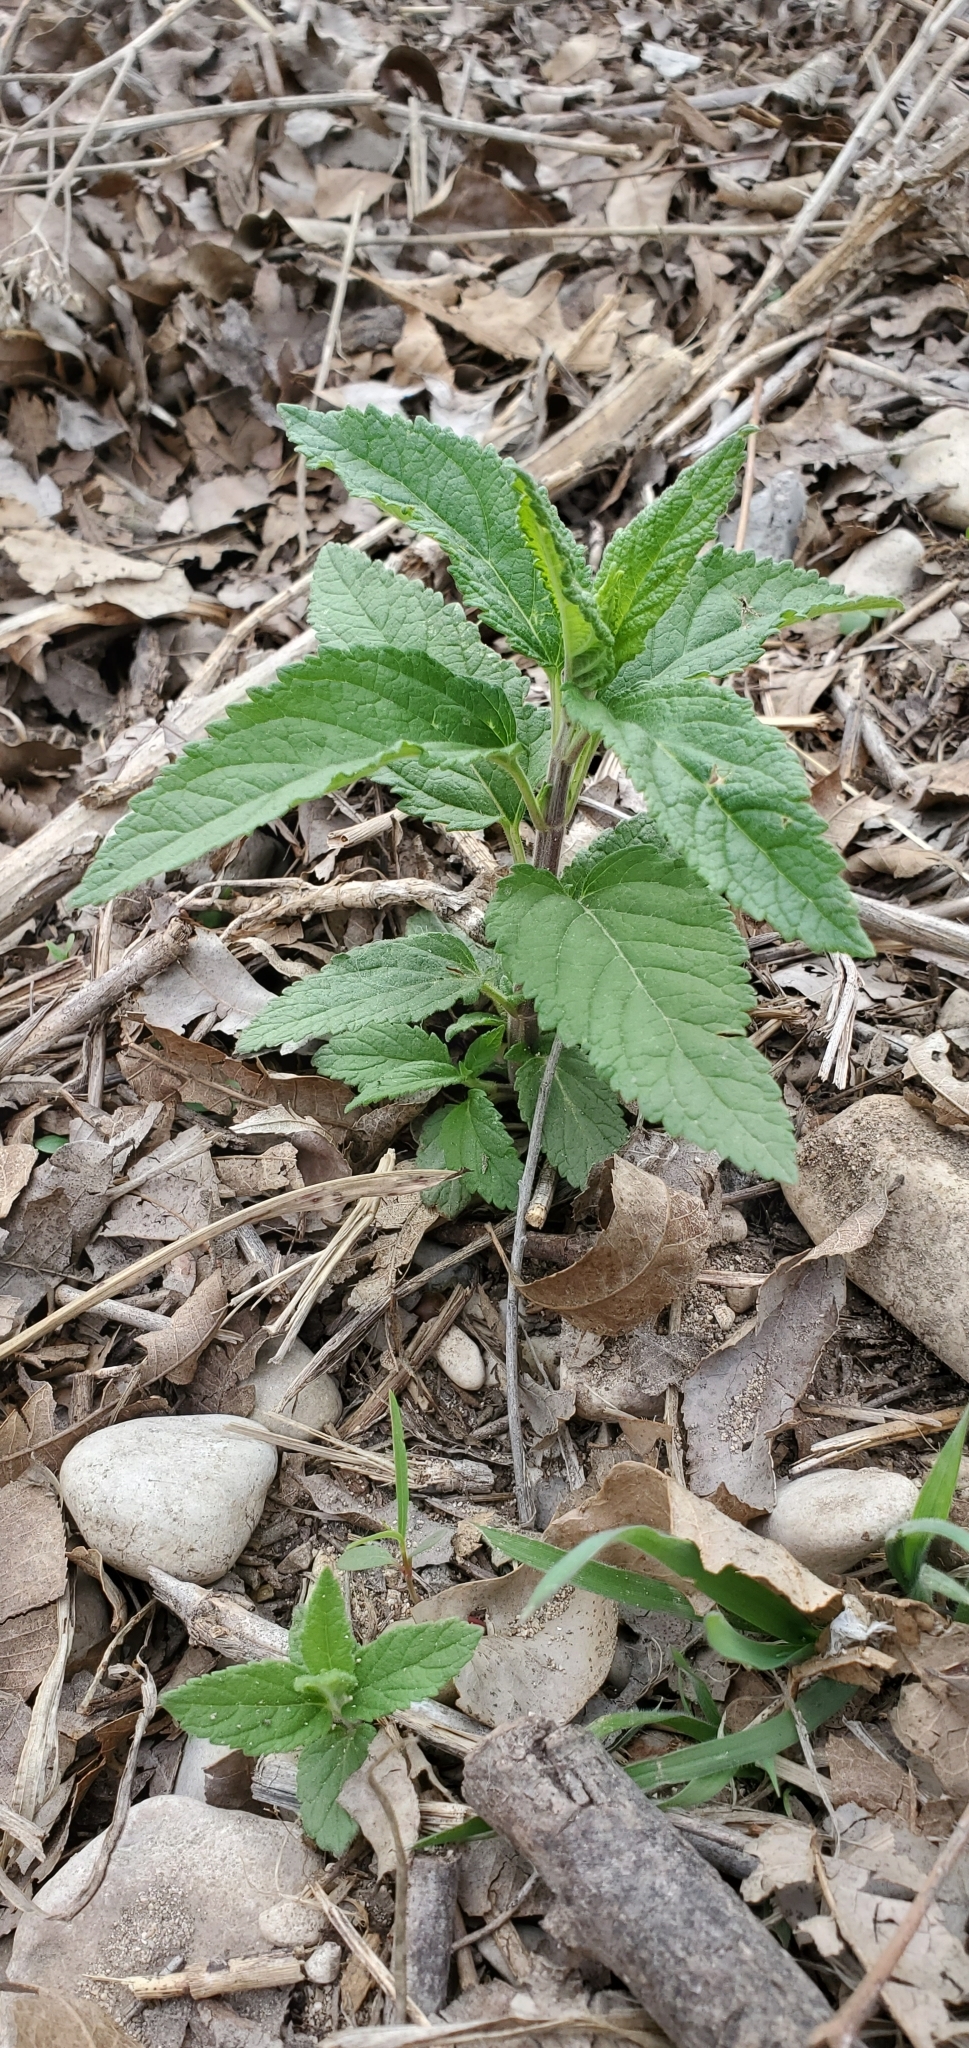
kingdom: Plantae
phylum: Tracheophyta
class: Magnoliopsida
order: Lamiales
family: Lamiaceae
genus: Teucrium
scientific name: Teucrium canadense
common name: American germander
